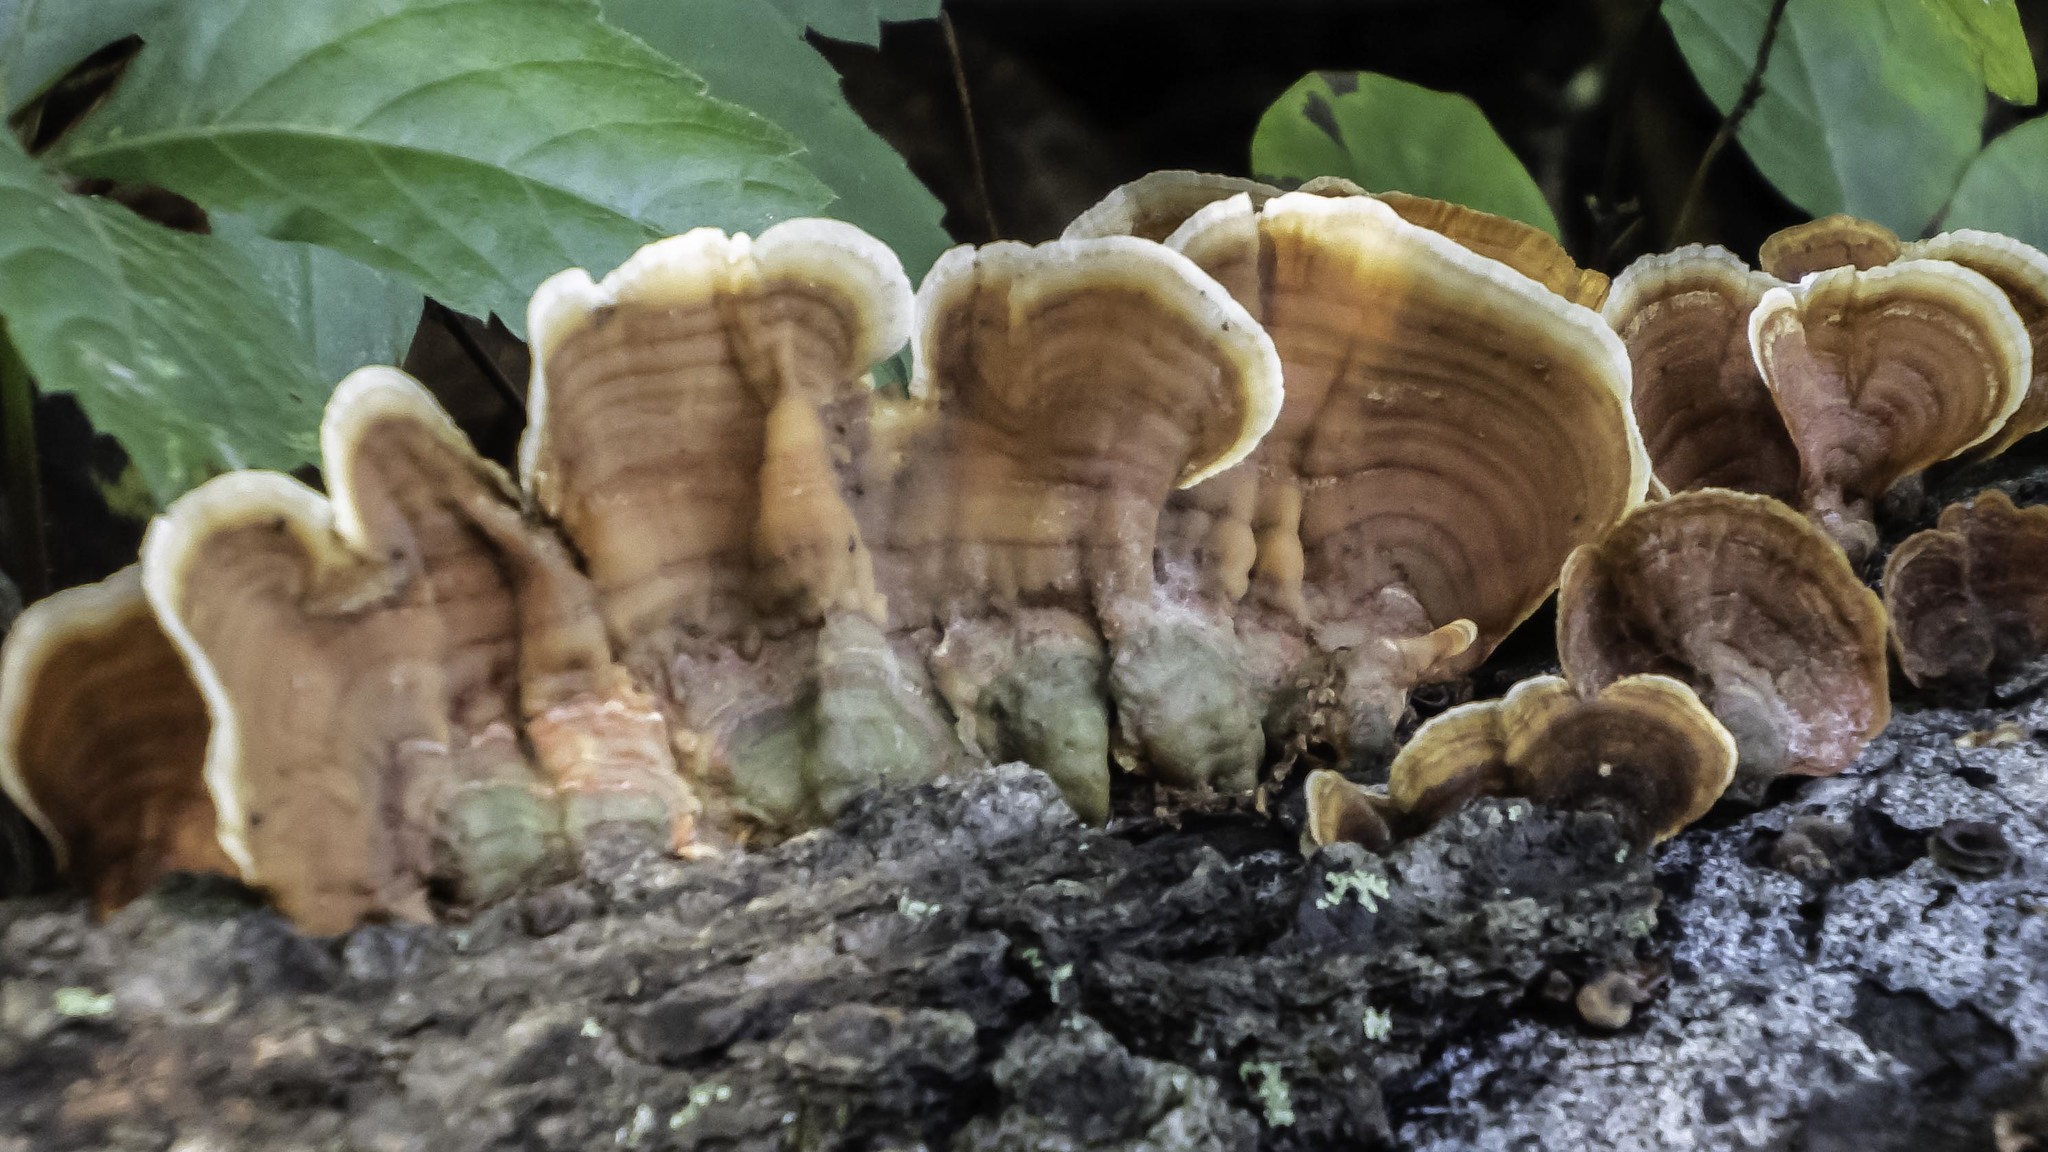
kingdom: Fungi
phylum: Basidiomycota
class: Agaricomycetes
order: Russulales
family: Stereaceae
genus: Stereum
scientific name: Stereum ostrea
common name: False turkeytail
